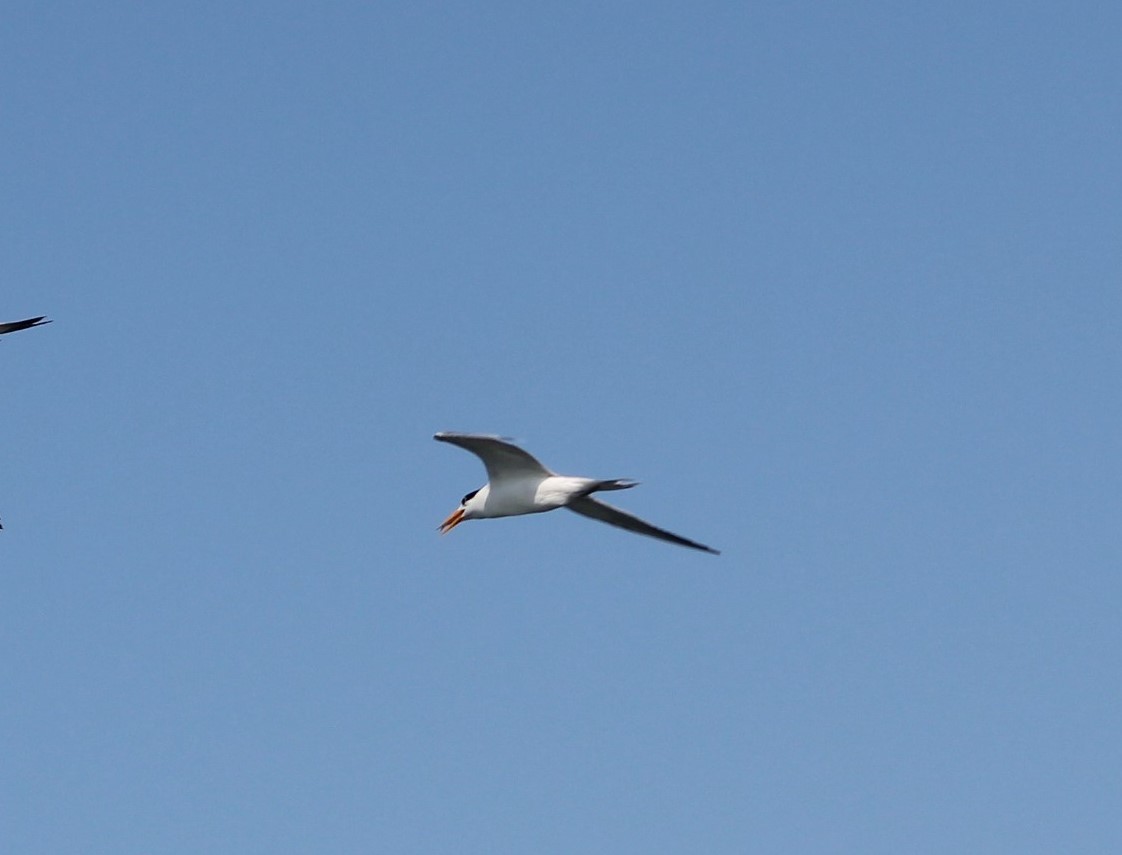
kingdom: Animalia
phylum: Chordata
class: Aves
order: Charadriiformes
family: Laridae
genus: Thalasseus
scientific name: Thalasseus bengalensis
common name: Lesser crested tern
